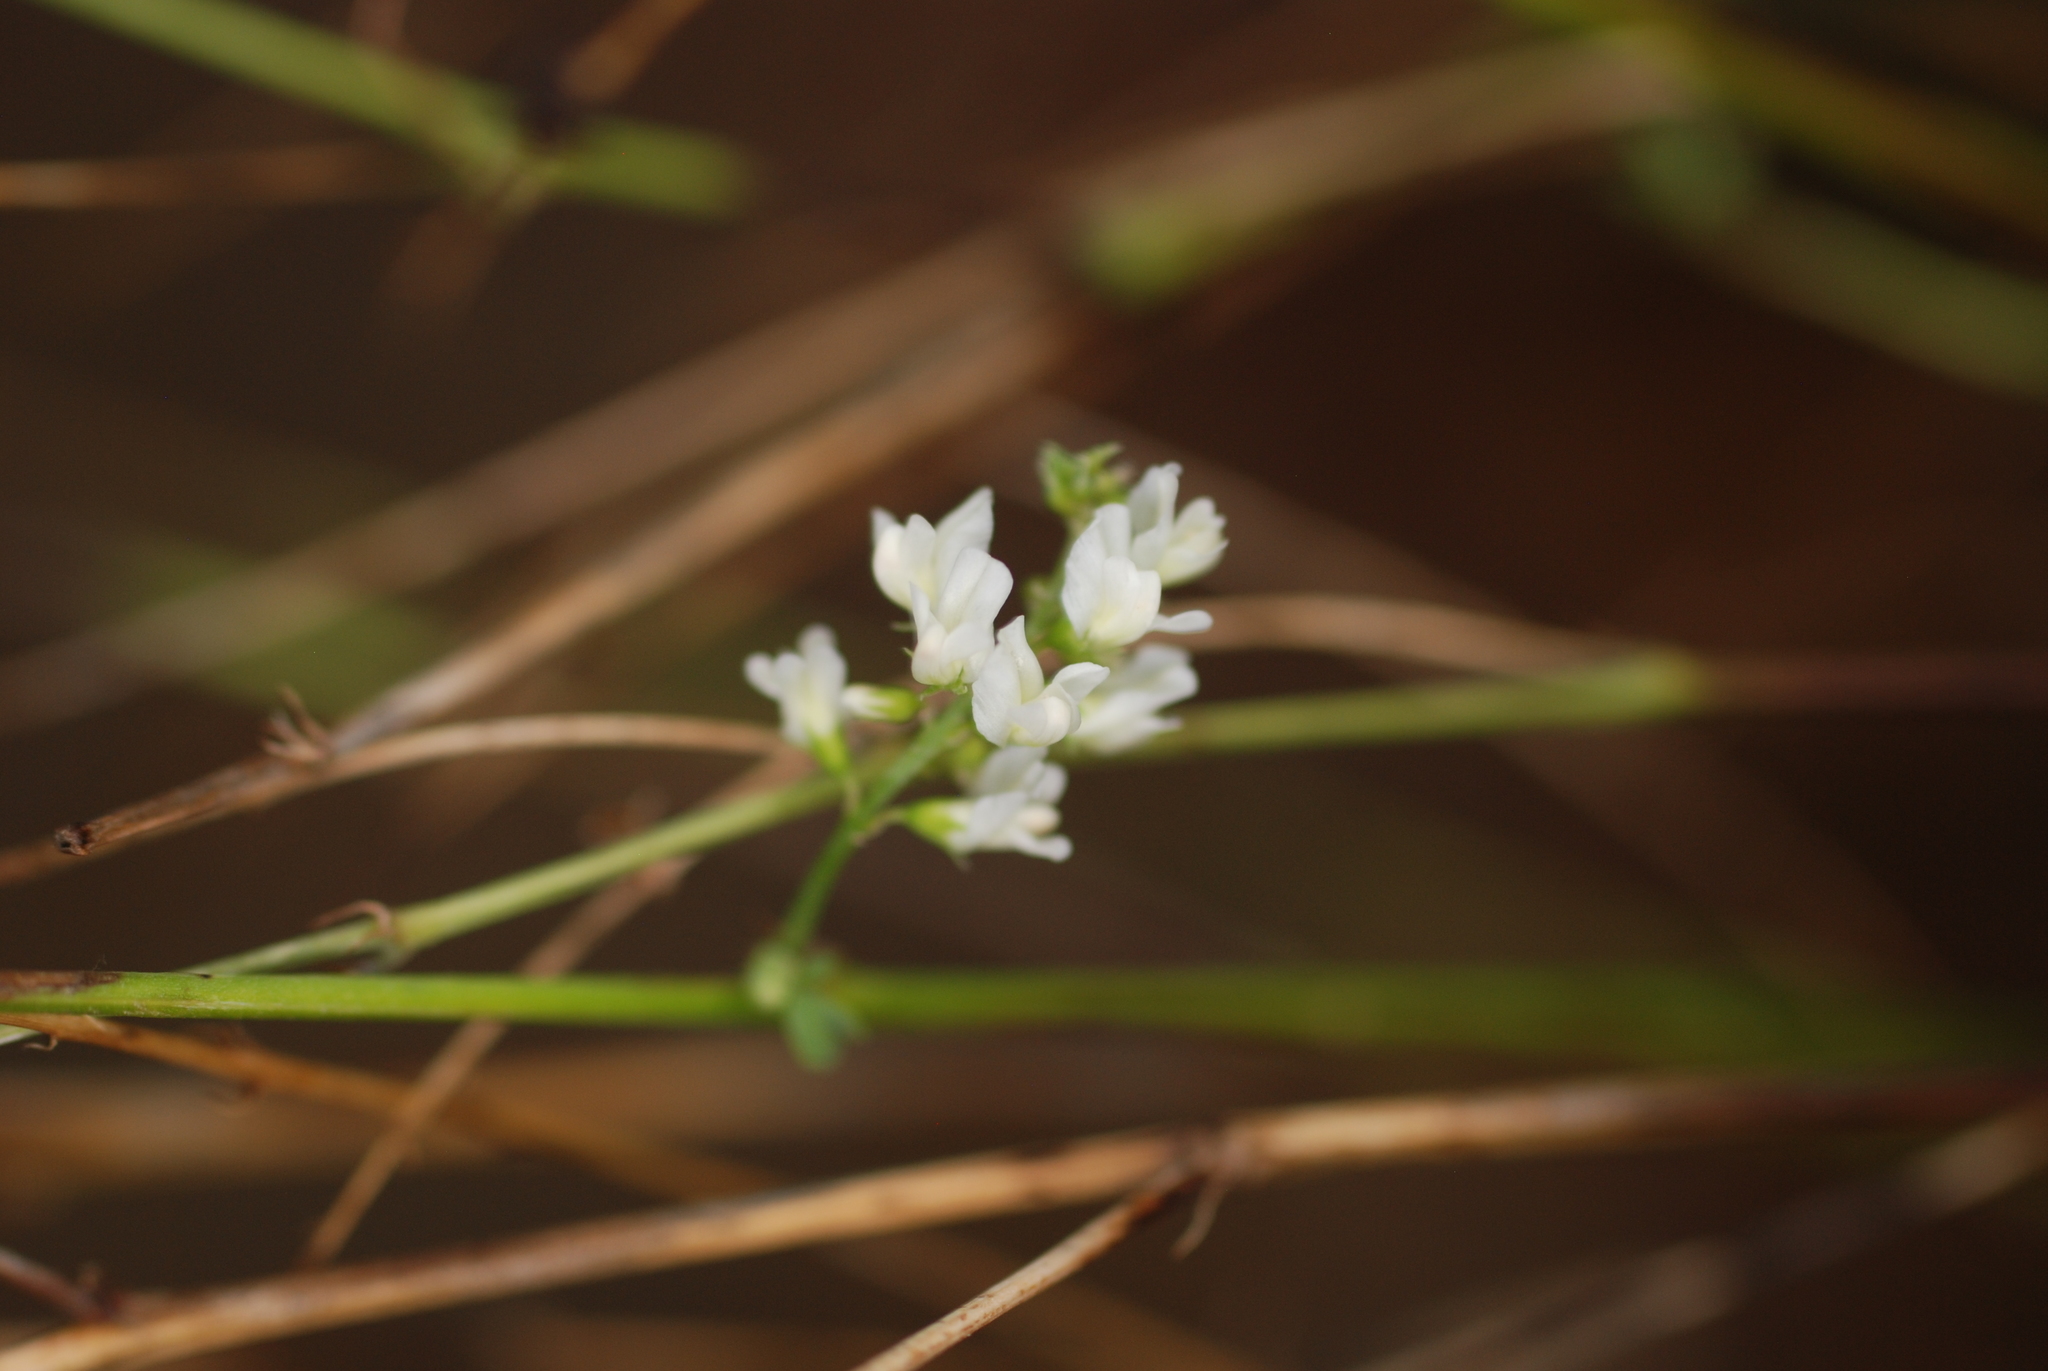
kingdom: Plantae
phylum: Tracheophyta
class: Magnoliopsida
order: Fabales
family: Fabaceae
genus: Melilotus
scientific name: Melilotus albus
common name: White melilot
